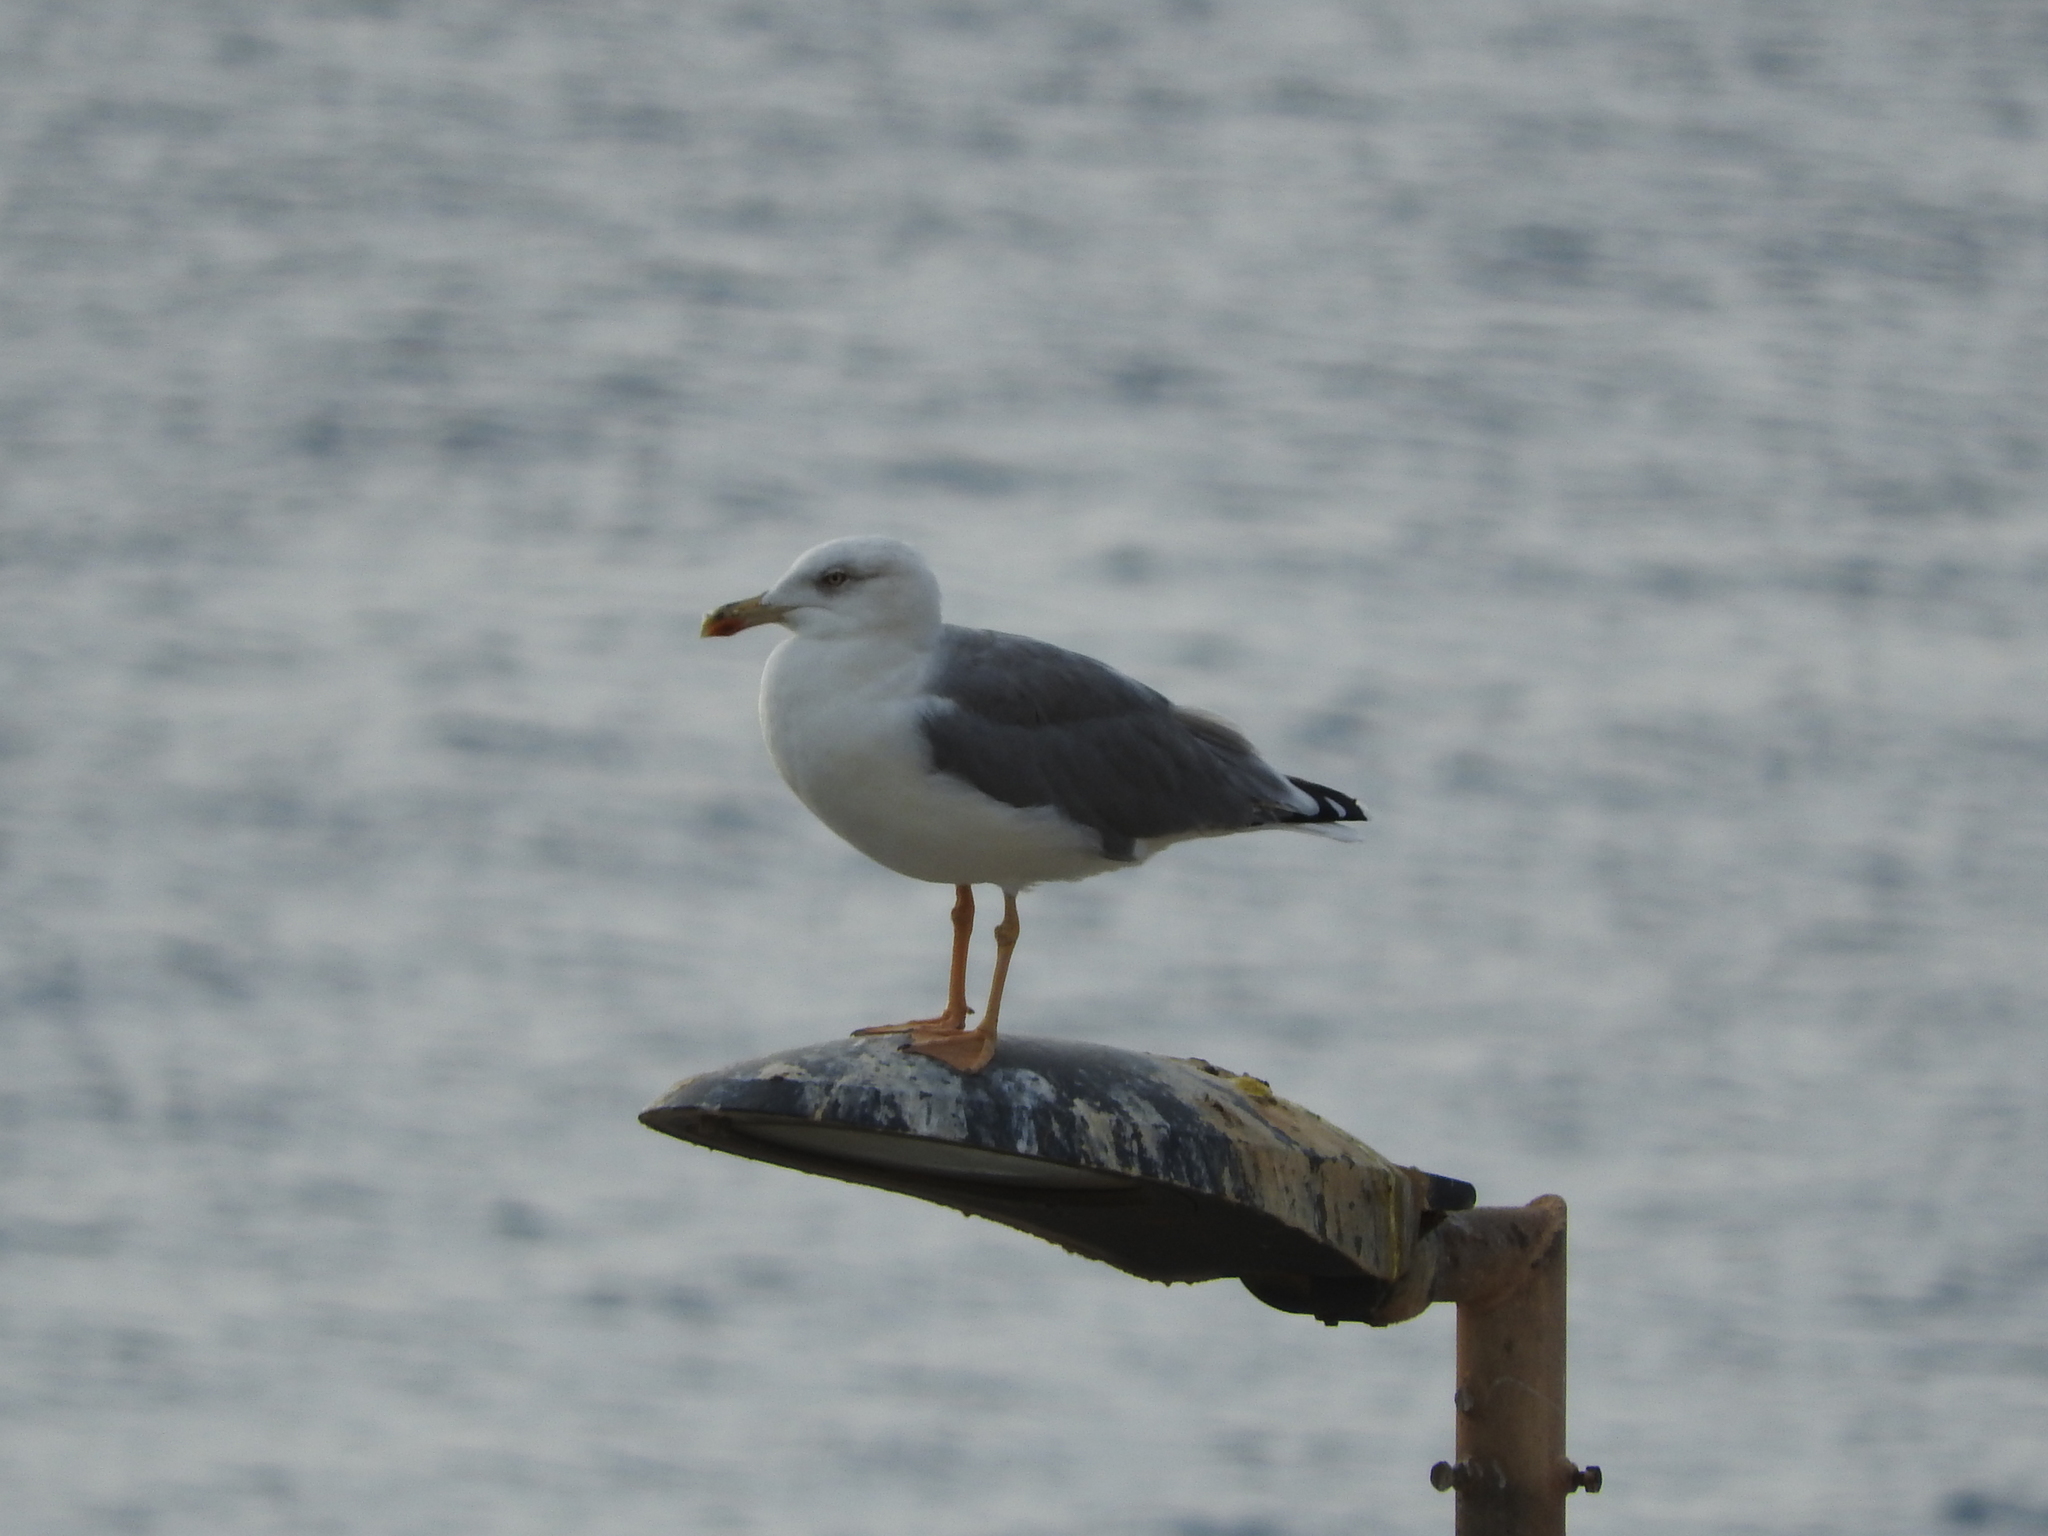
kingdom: Animalia
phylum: Chordata
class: Aves
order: Charadriiformes
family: Laridae
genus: Larus
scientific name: Larus michahellis
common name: Yellow-legged gull
